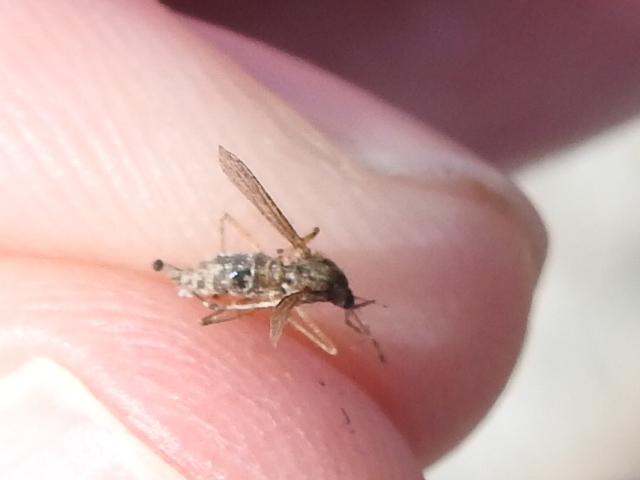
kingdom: Animalia
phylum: Arthropoda
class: Insecta
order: Diptera
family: Culicidae
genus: Psorophora
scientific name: Psorophora columbiae
